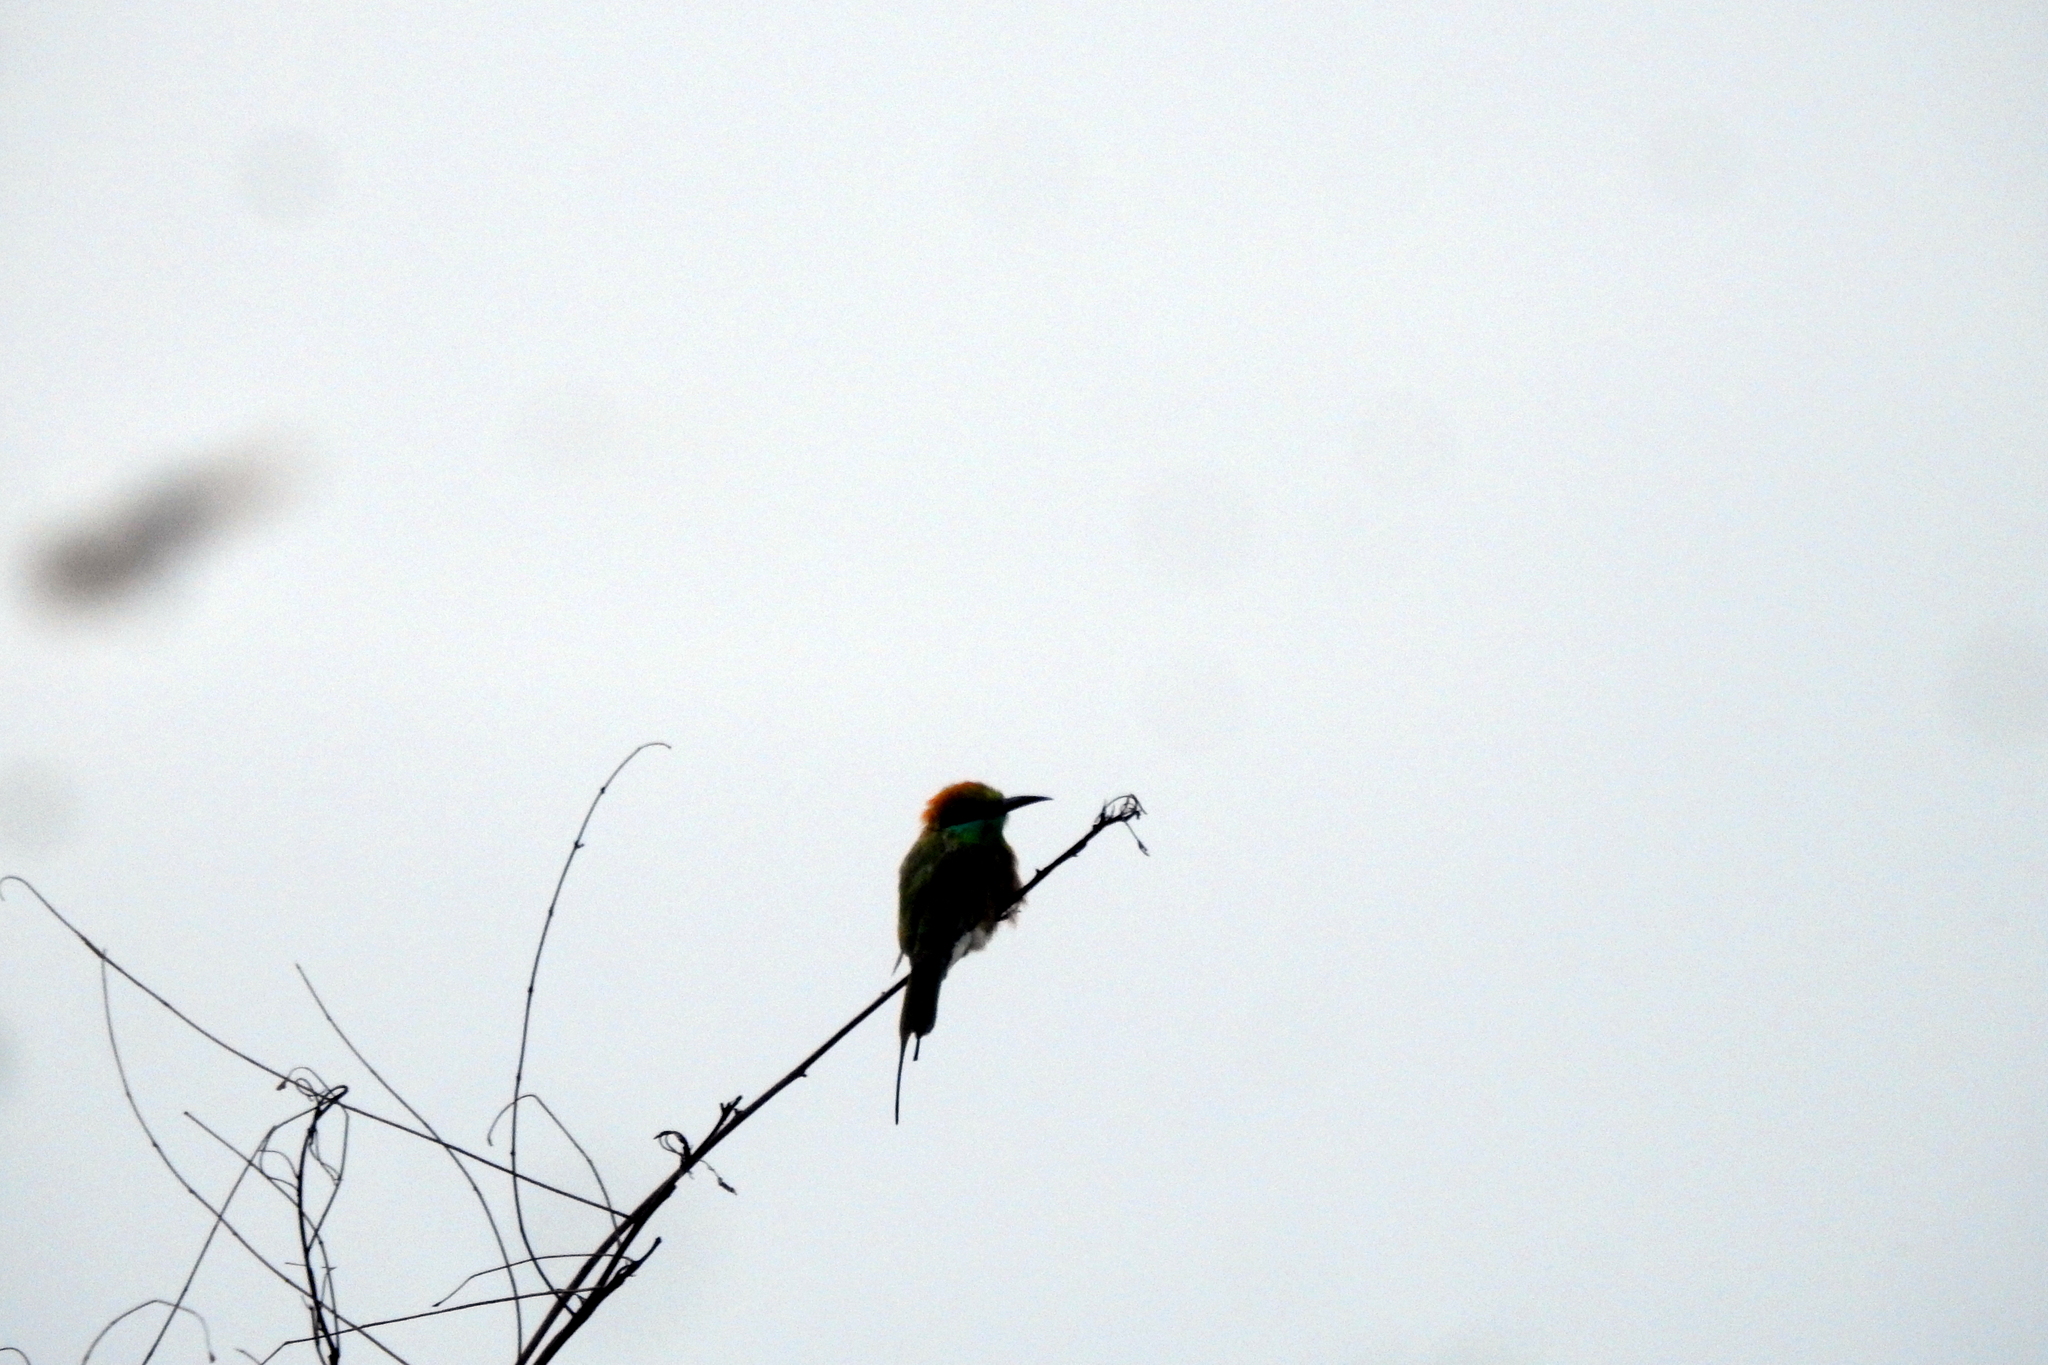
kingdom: Animalia
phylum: Chordata
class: Aves
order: Coraciiformes
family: Meropidae
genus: Merops
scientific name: Merops orientalis
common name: Green bee-eater
